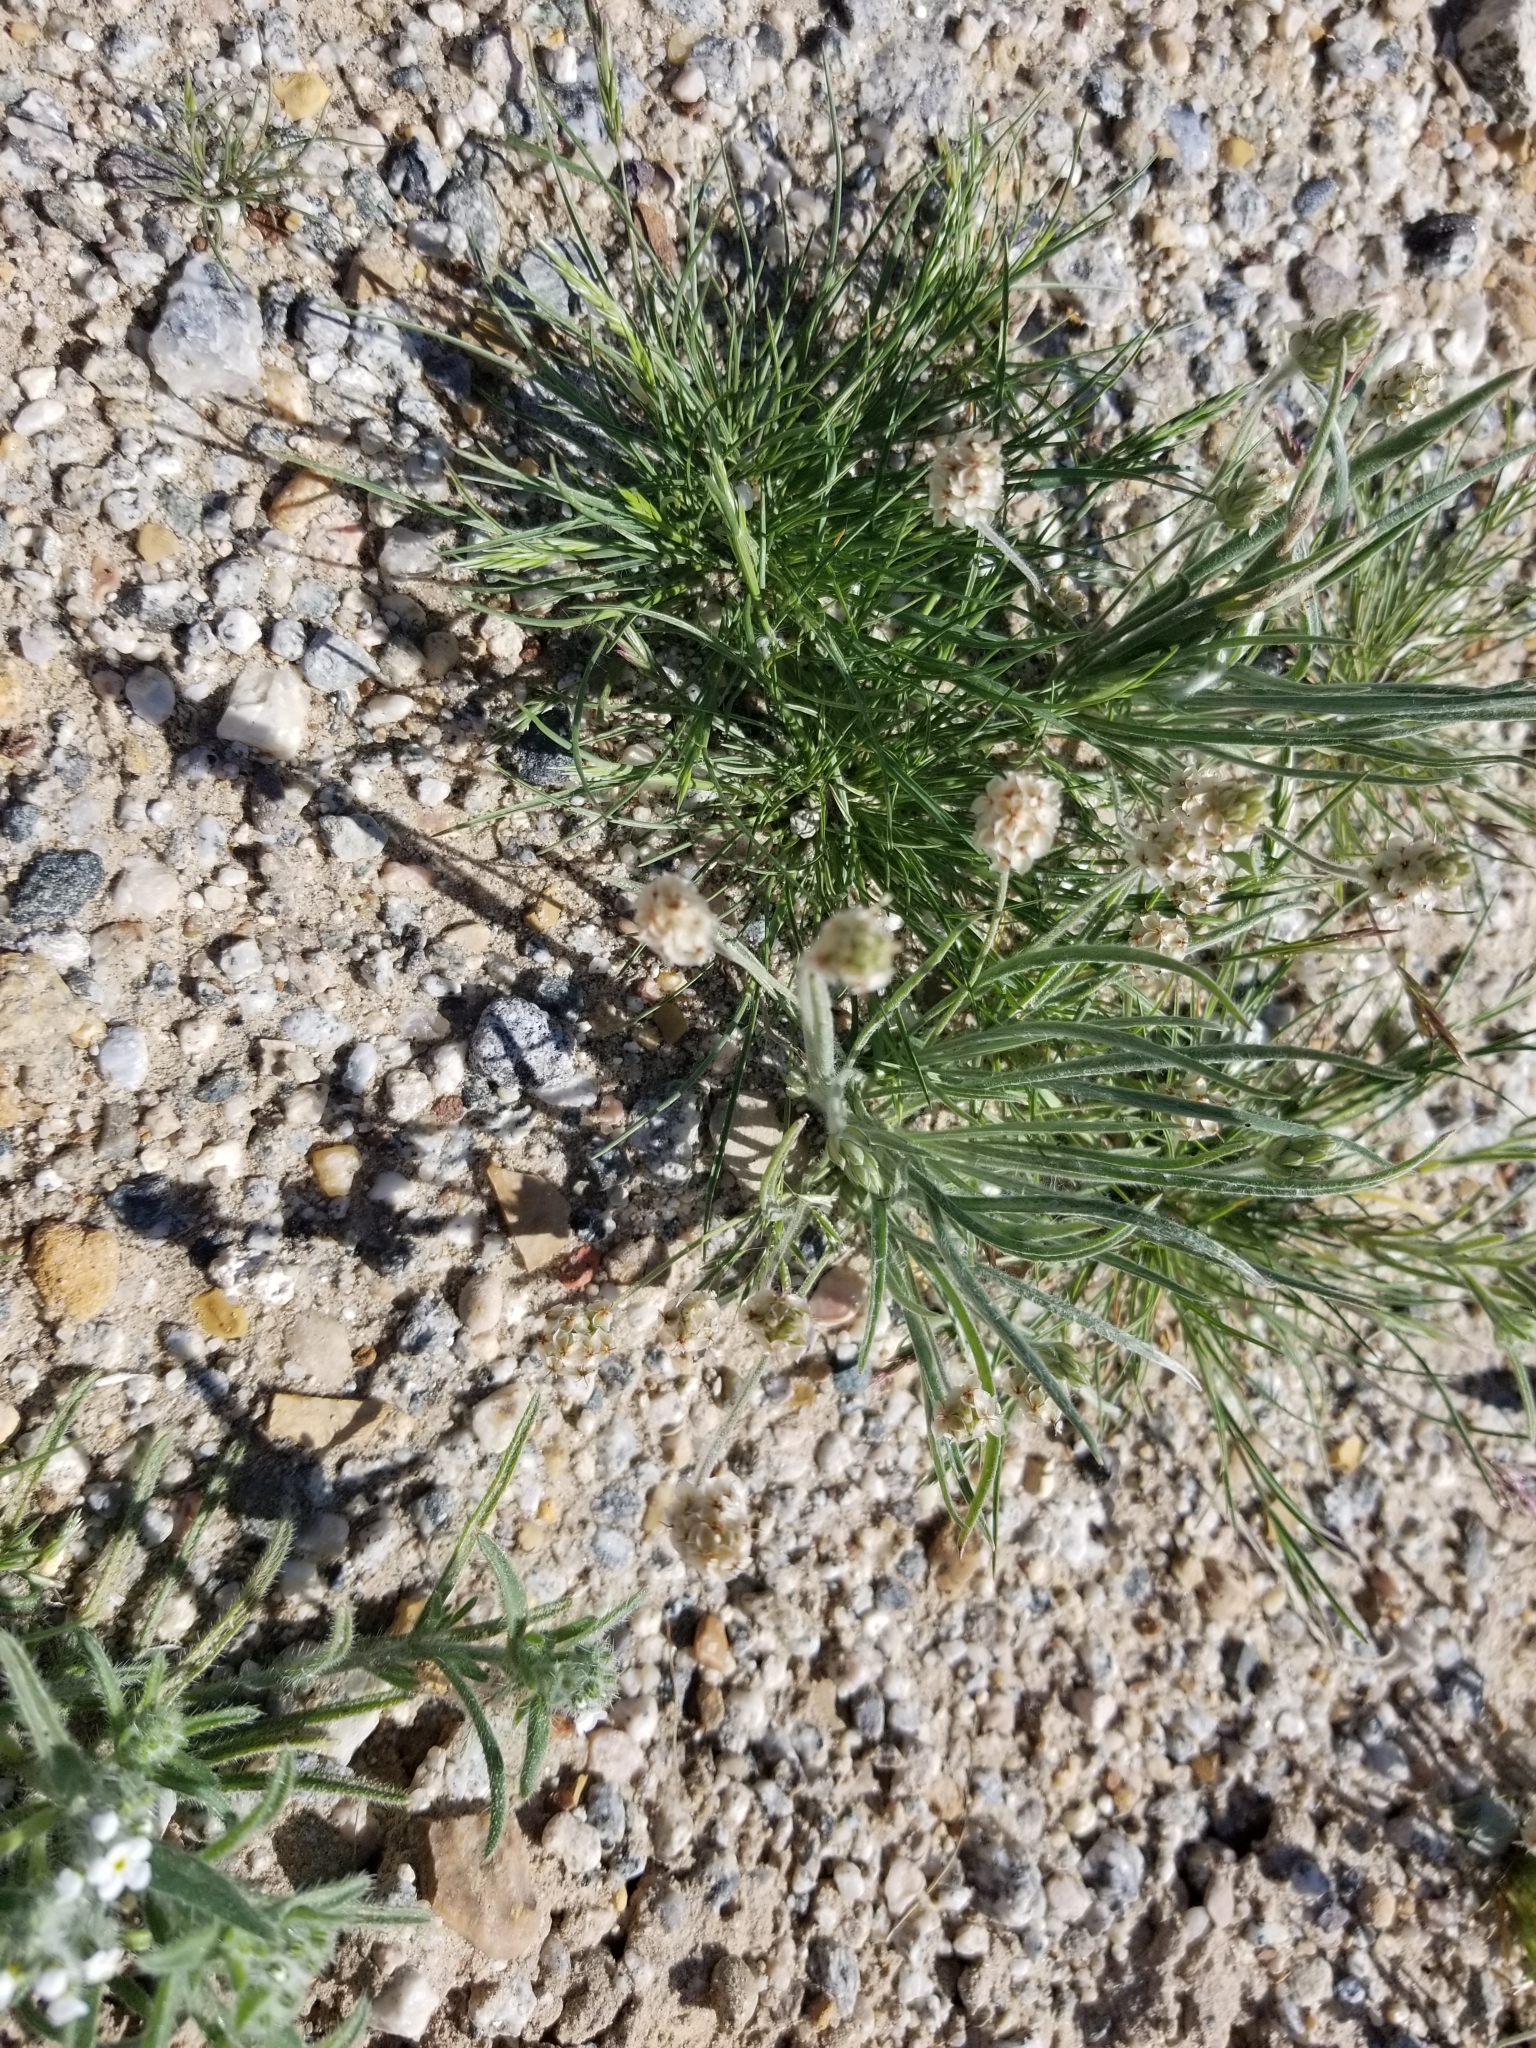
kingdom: Plantae
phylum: Tracheophyta
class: Magnoliopsida
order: Lamiales
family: Plantaginaceae
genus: Plantago
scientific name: Plantago ovata
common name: Blond plantain
